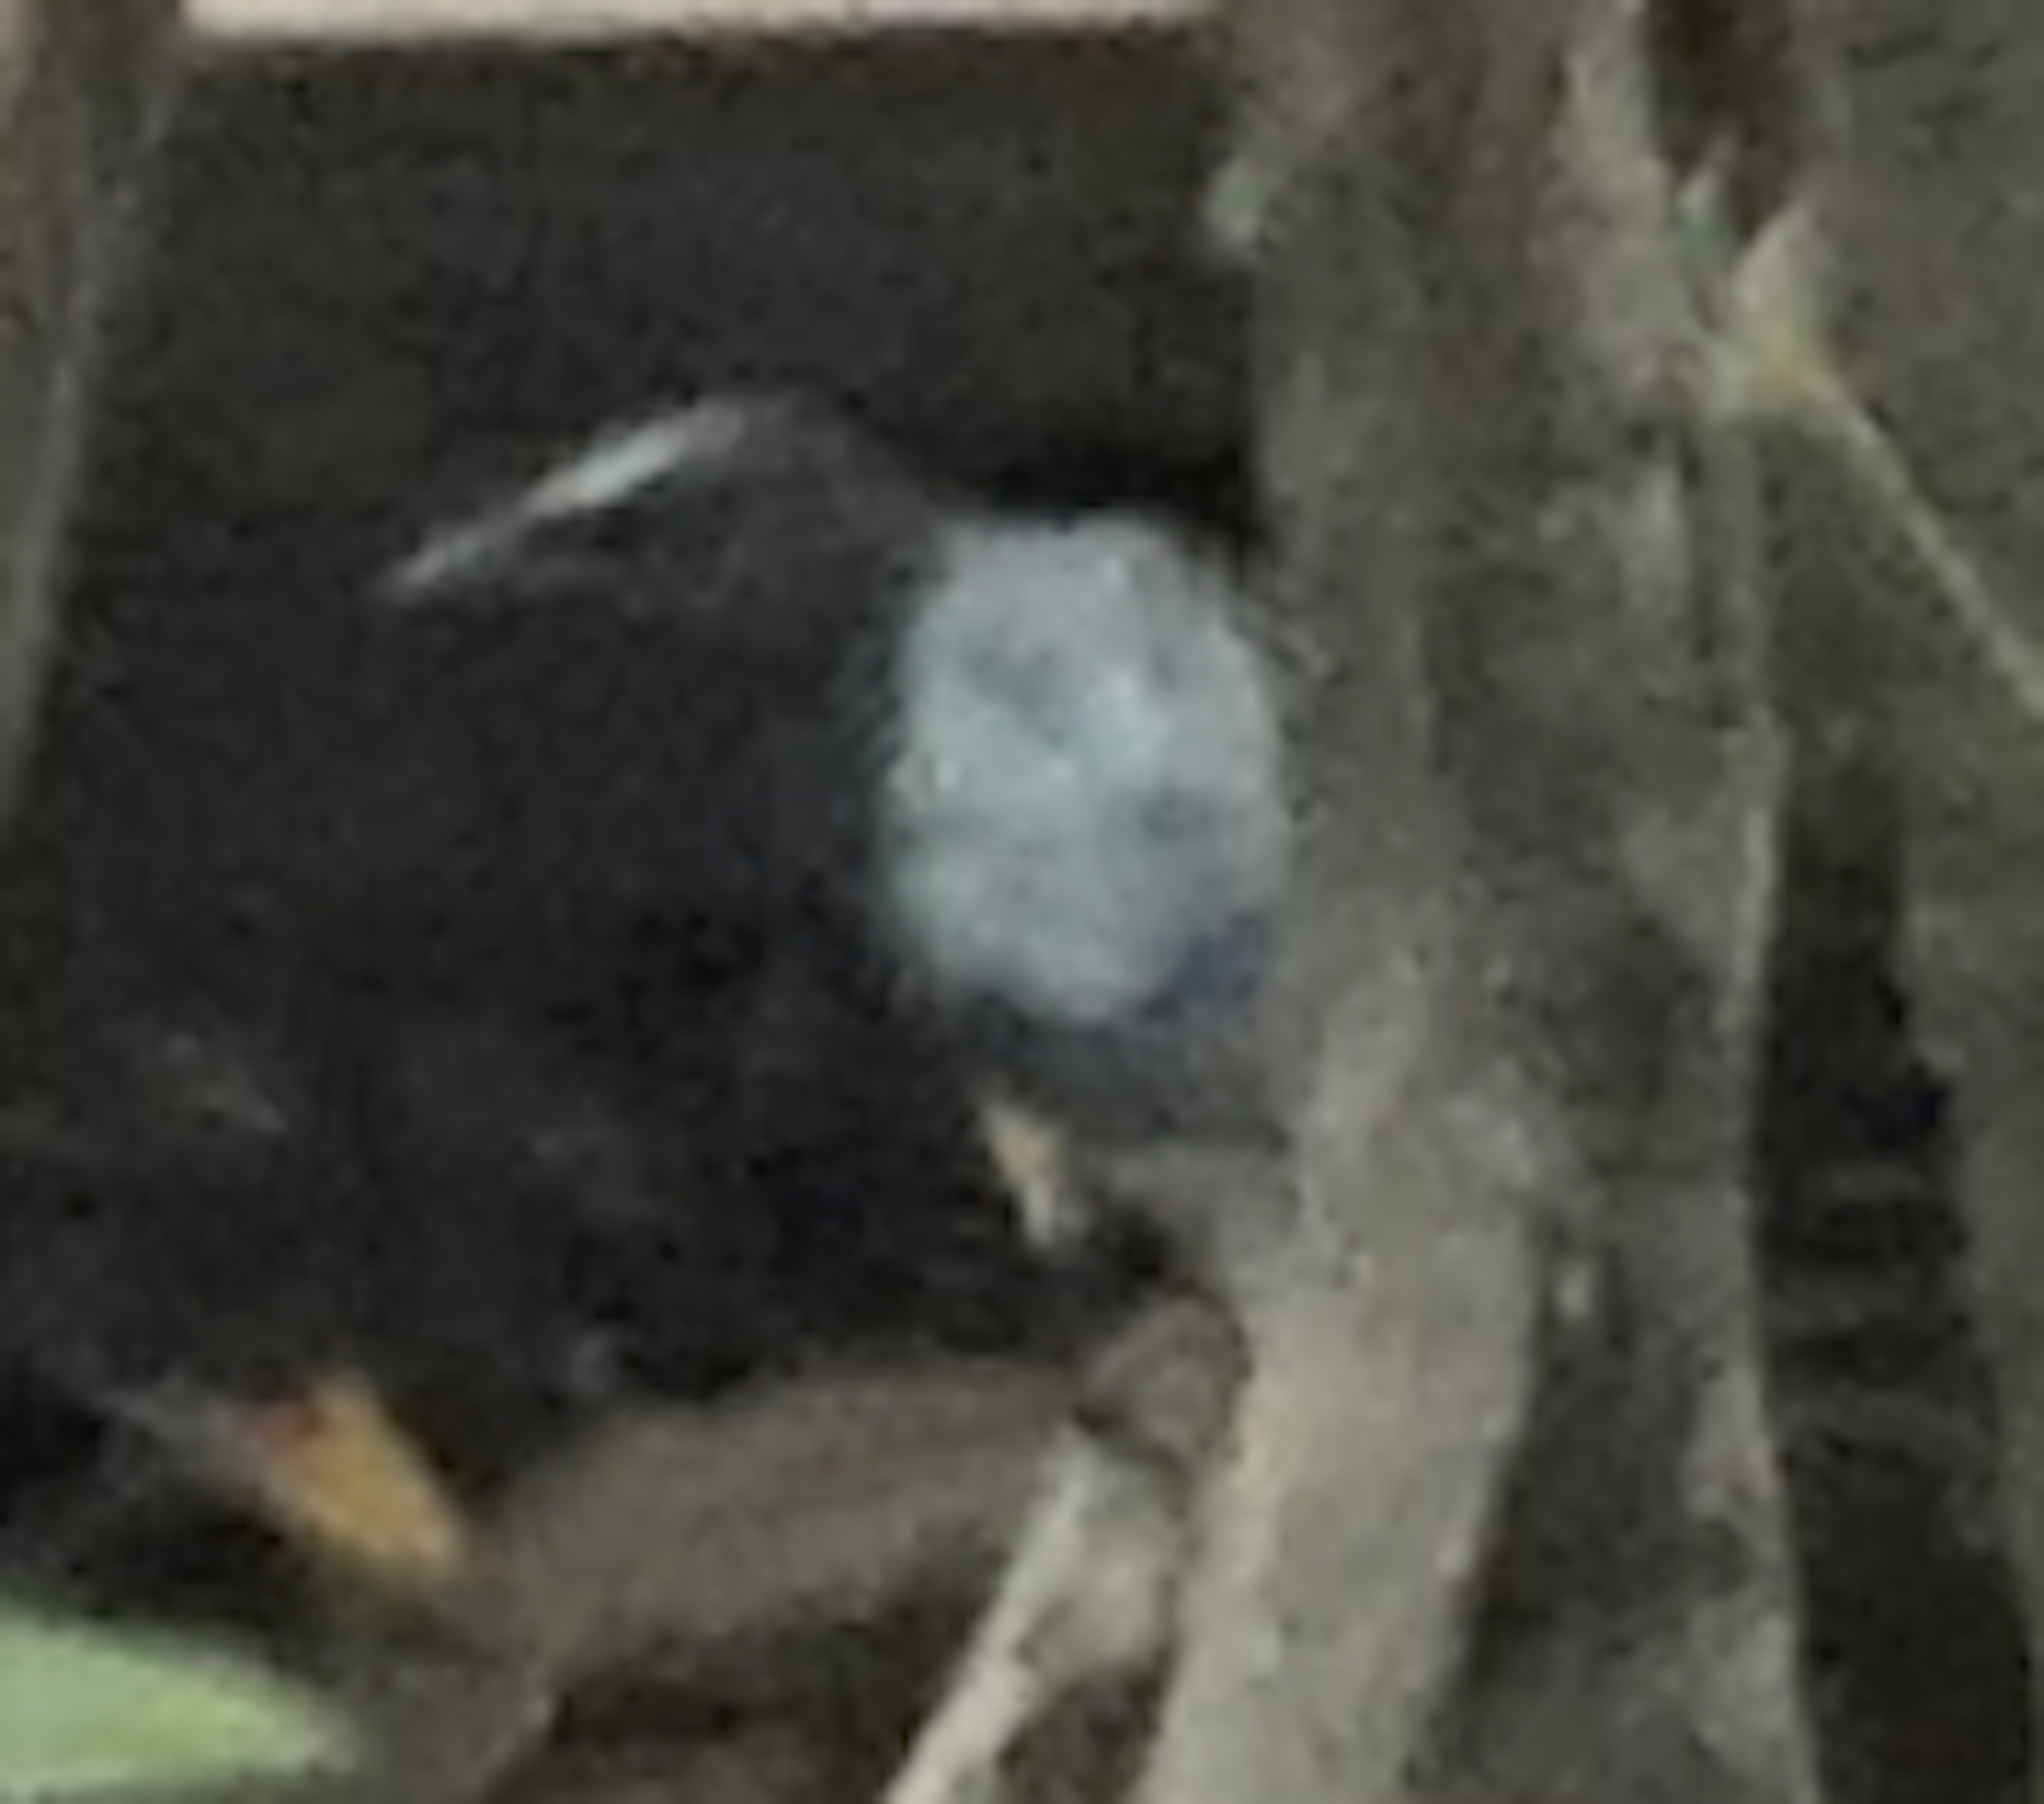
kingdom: Animalia
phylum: Chordata
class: Aves
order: Passeriformes
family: Sturnidae
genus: Aplonis
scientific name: Aplonis panayensis
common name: Asian glossy starling
